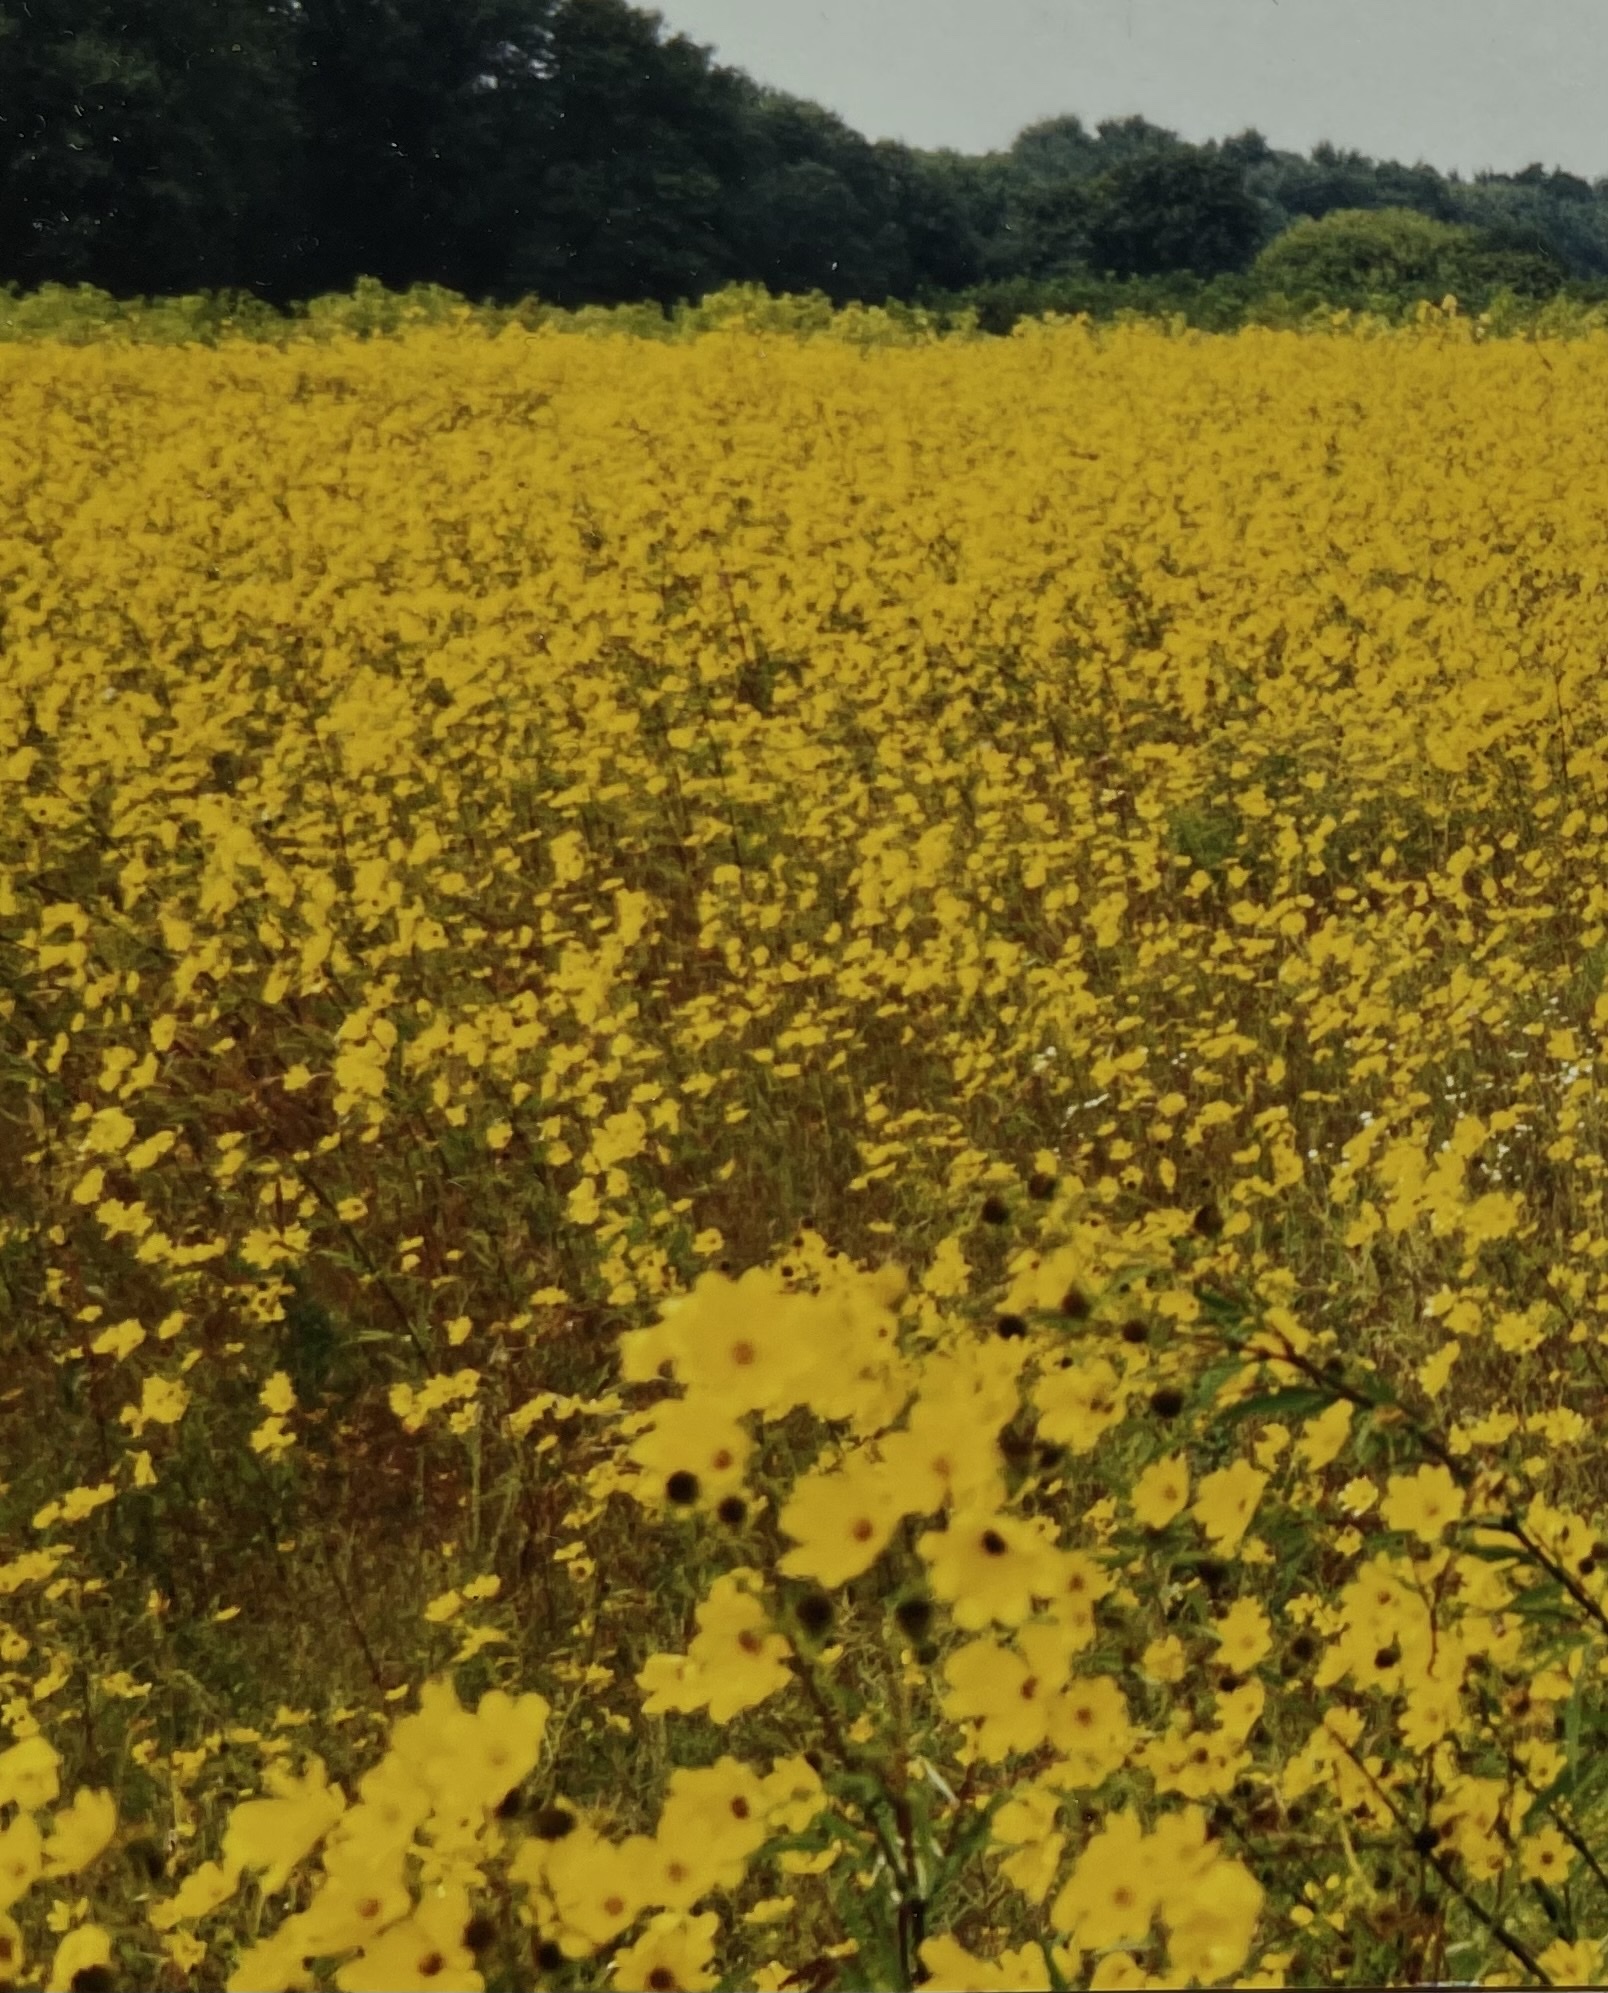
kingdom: Plantae
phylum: Tracheophyta
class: Magnoliopsida
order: Asterales
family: Asteraceae
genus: Helianthus
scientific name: Helianthus angustifolius
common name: Swamp sunflower
